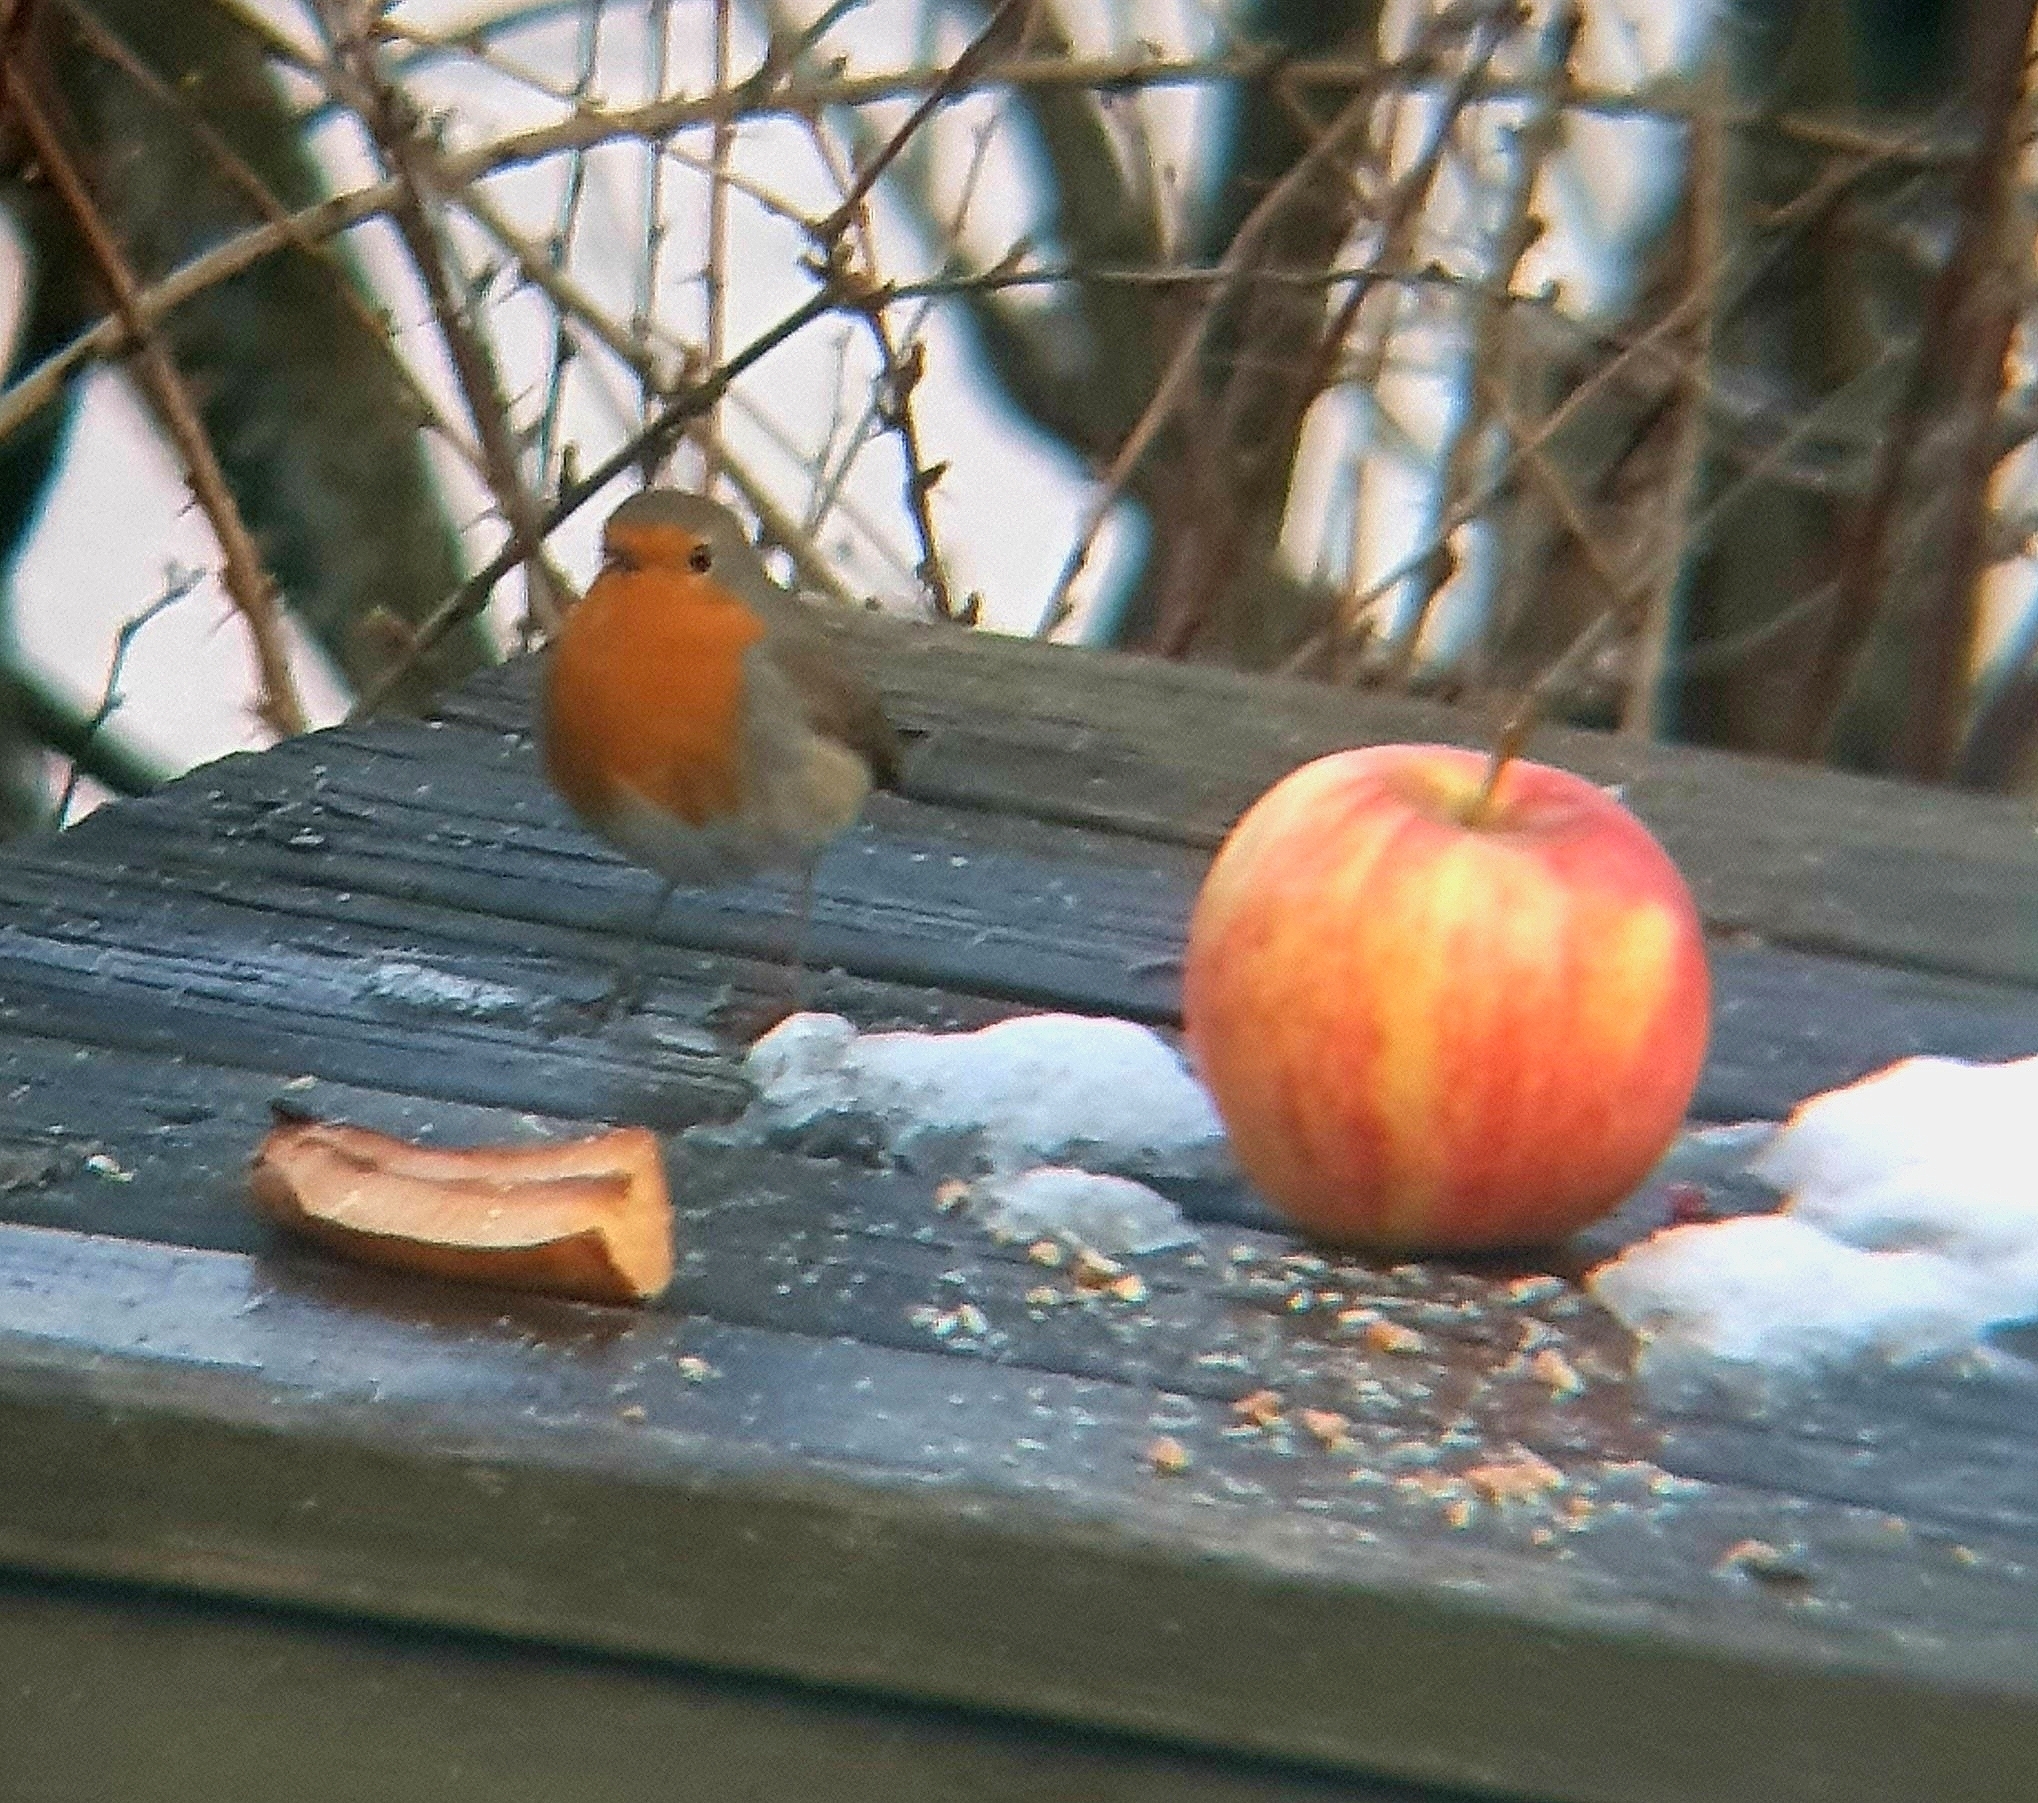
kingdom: Animalia
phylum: Chordata
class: Aves
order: Passeriformes
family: Muscicapidae
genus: Erithacus
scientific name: Erithacus rubecula
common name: European robin
